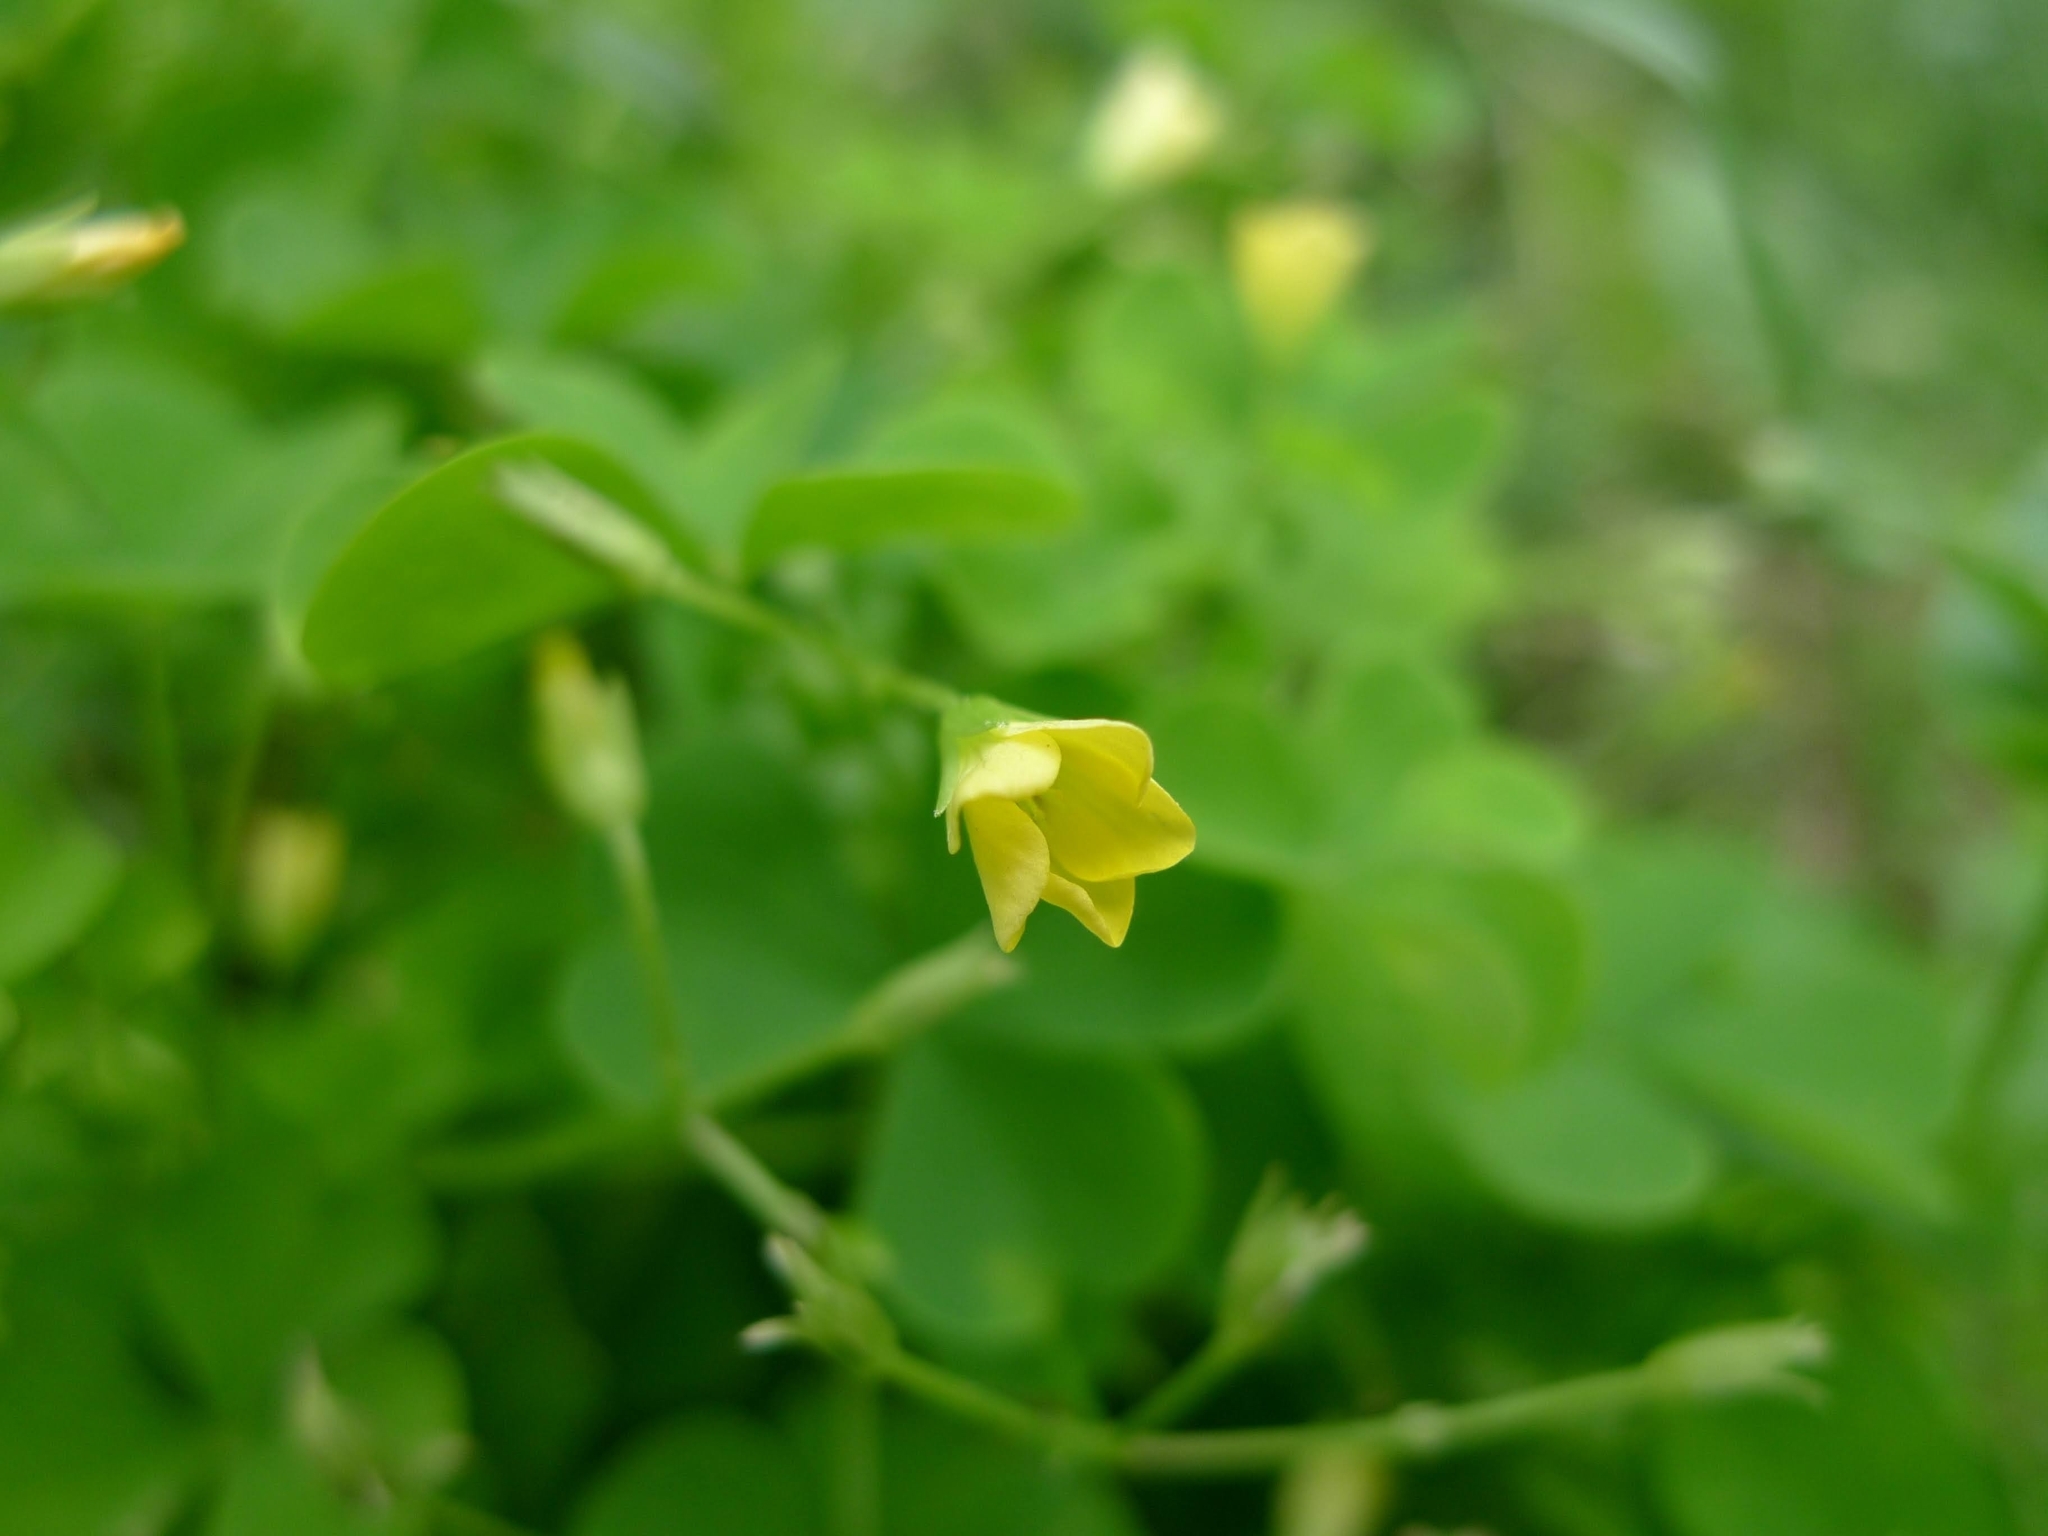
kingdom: Plantae
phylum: Tracheophyta
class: Magnoliopsida
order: Oxalidales
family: Oxalidaceae
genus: Oxalis
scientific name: Oxalis stricta
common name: Upright yellow-sorrel
